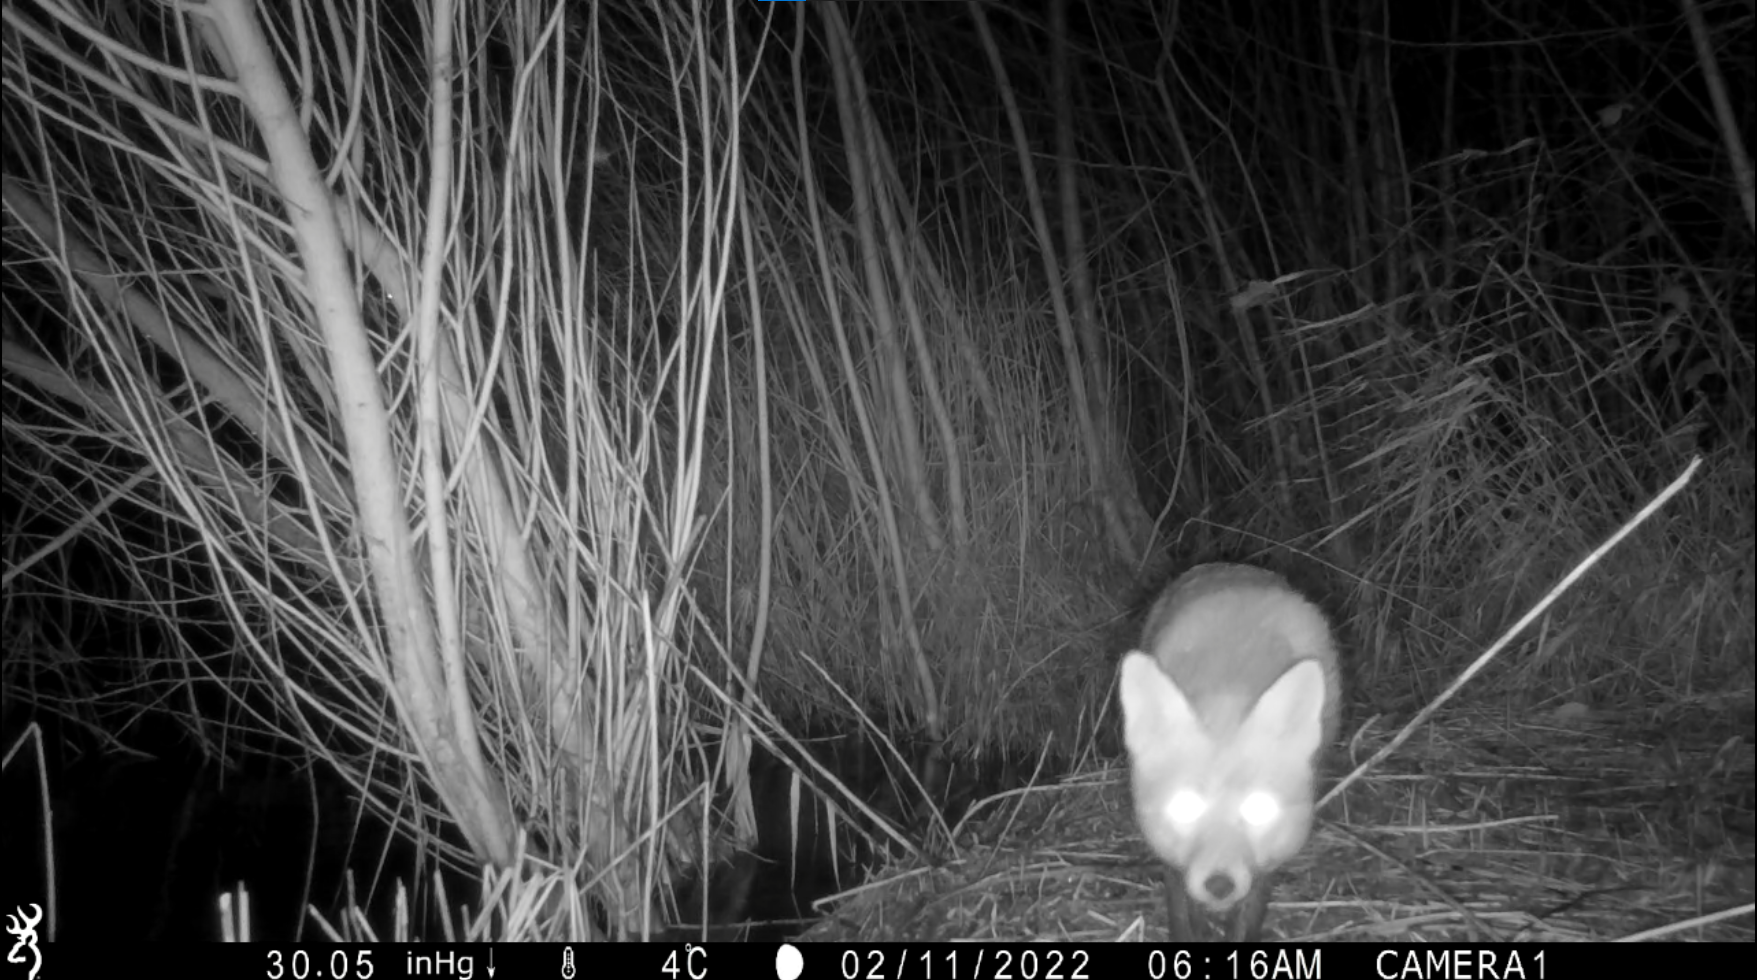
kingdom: Animalia
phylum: Chordata
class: Mammalia
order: Carnivora
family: Canidae
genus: Vulpes
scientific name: Vulpes vulpes
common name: Red fox
